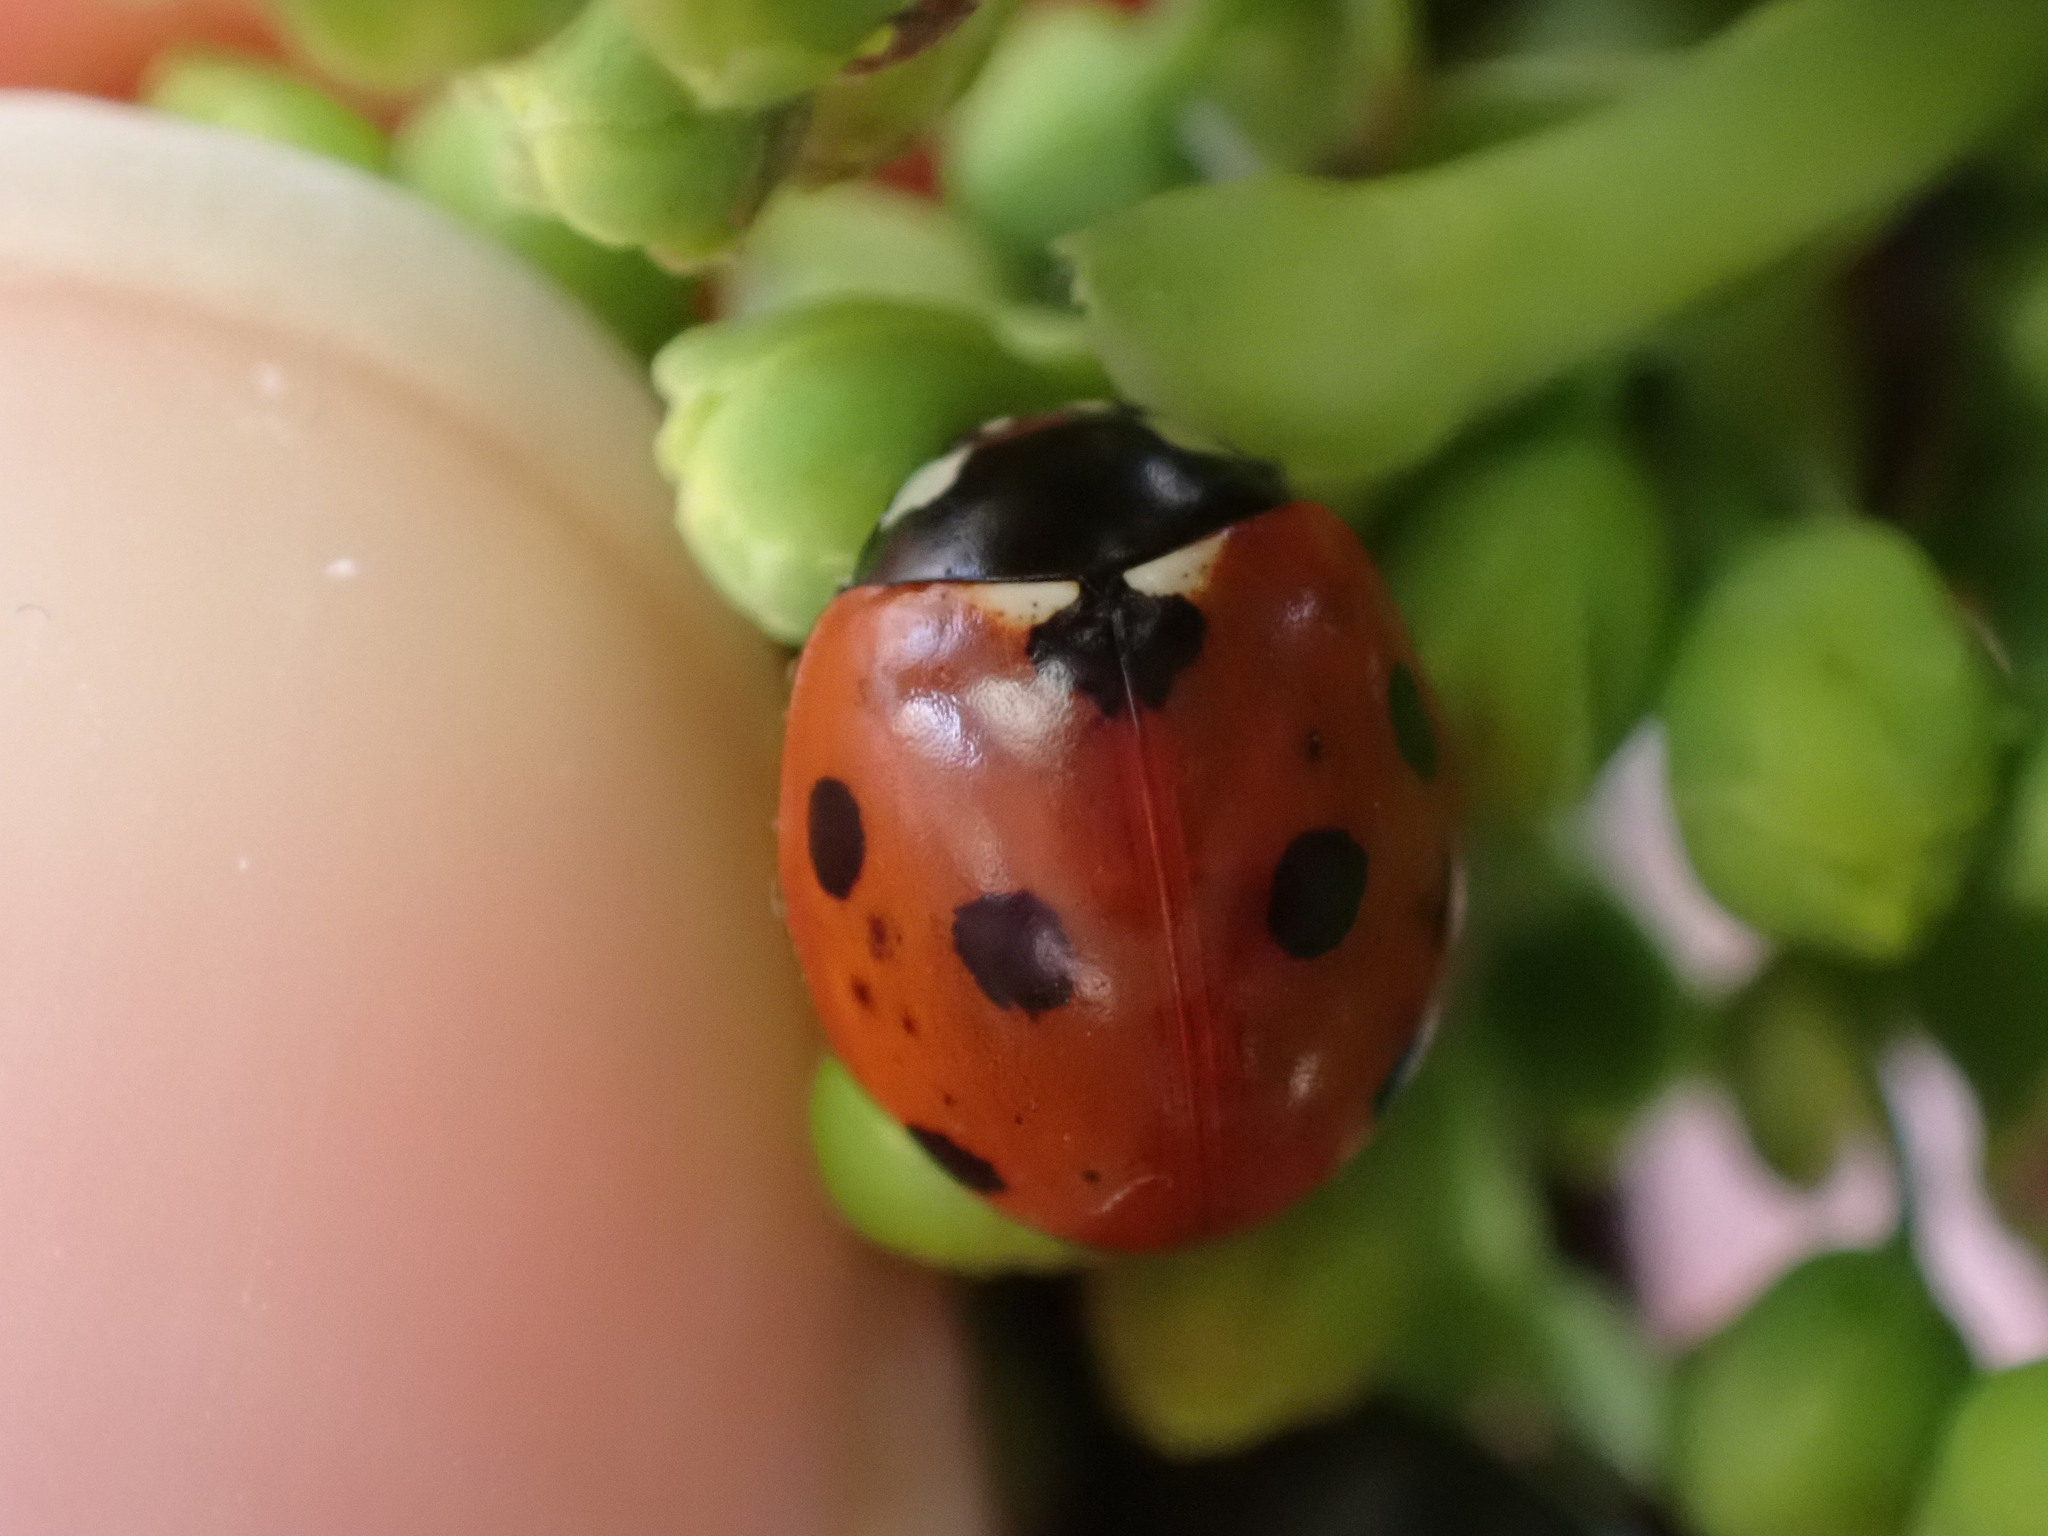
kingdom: Animalia
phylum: Arthropoda
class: Insecta
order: Coleoptera
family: Coccinellidae
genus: Coccinella
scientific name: Coccinella septempunctata
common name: Sevenspotted lady beetle
